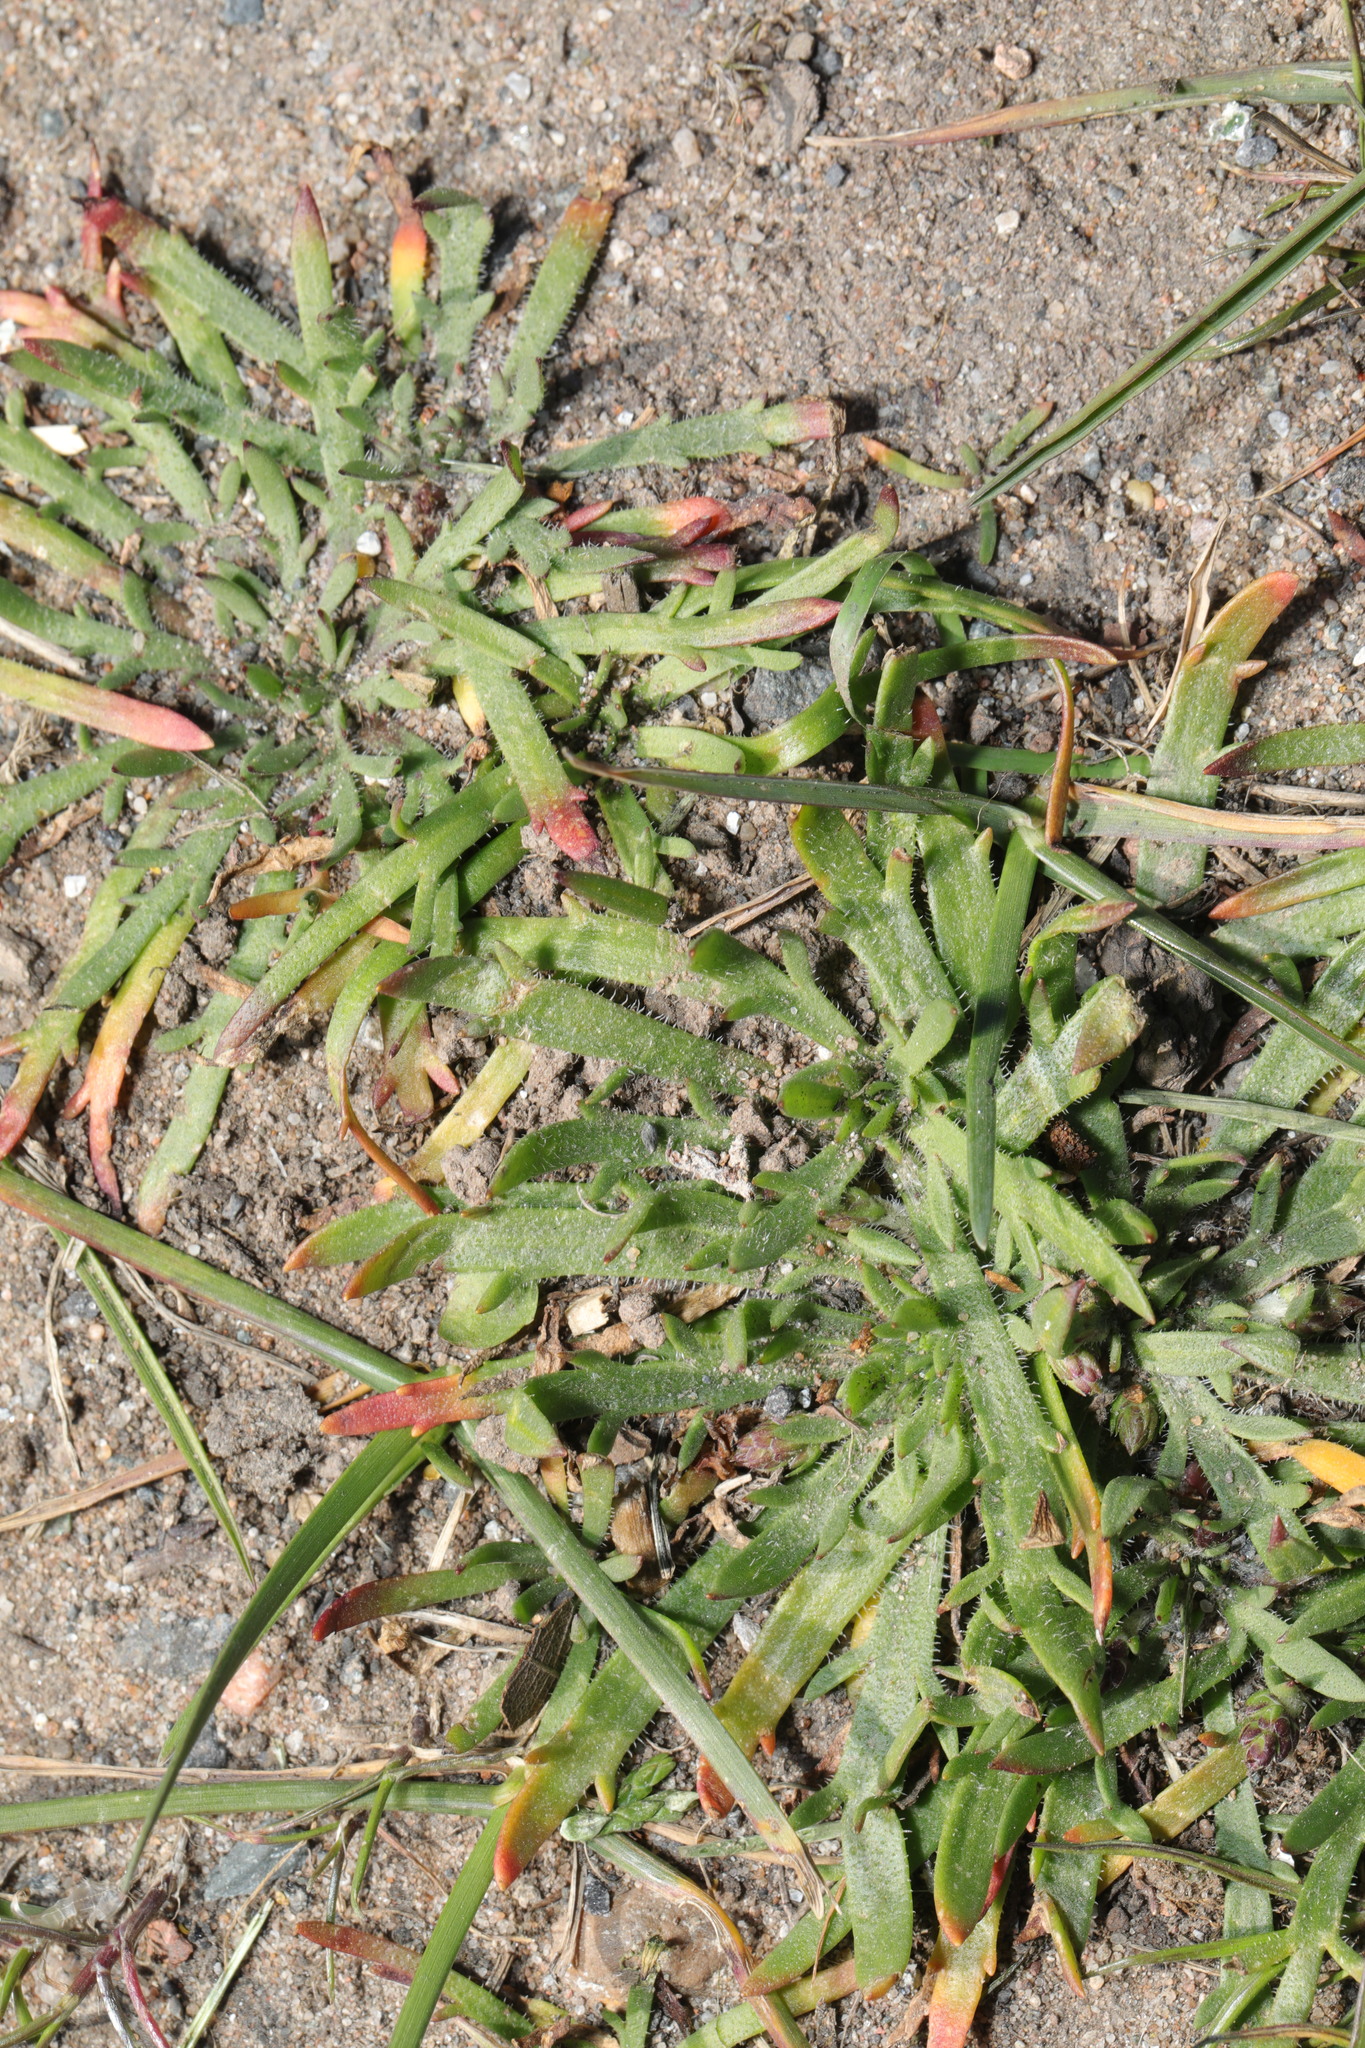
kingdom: Plantae
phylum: Tracheophyta
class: Magnoliopsida
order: Lamiales
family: Plantaginaceae
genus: Plantago
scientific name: Plantago coronopus
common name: Buck's-horn plantain
